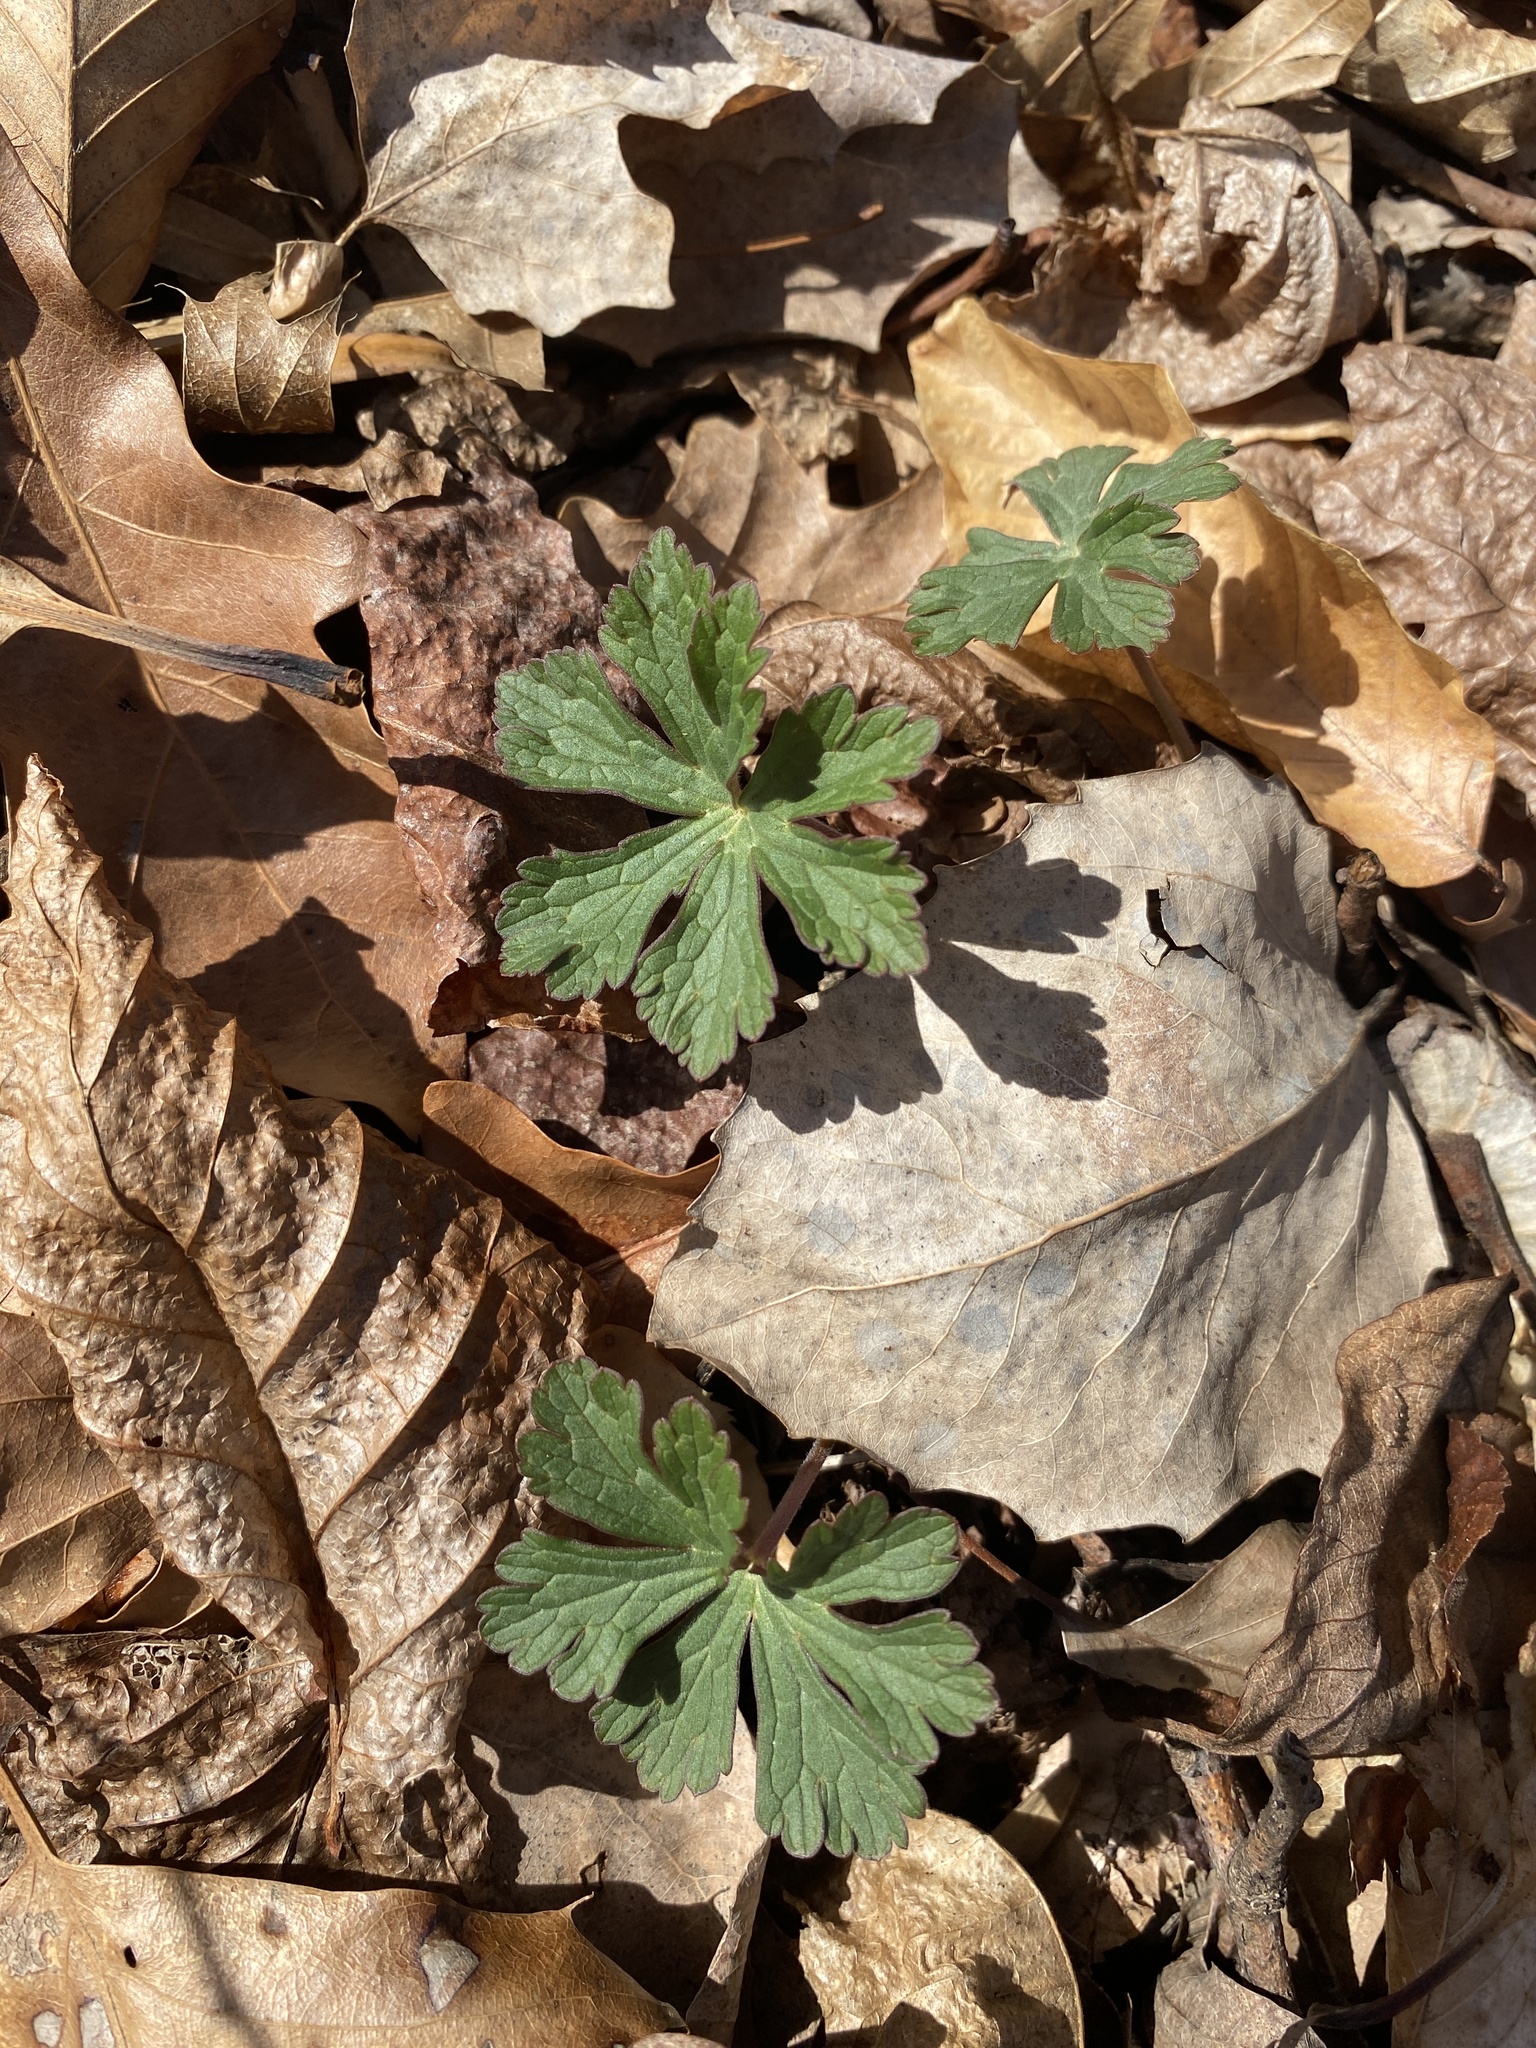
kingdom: Plantae
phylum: Tracheophyta
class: Magnoliopsida
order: Geraniales
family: Geraniaceae
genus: Geranium
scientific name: Geranium maculatum
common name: Spotted geranium
